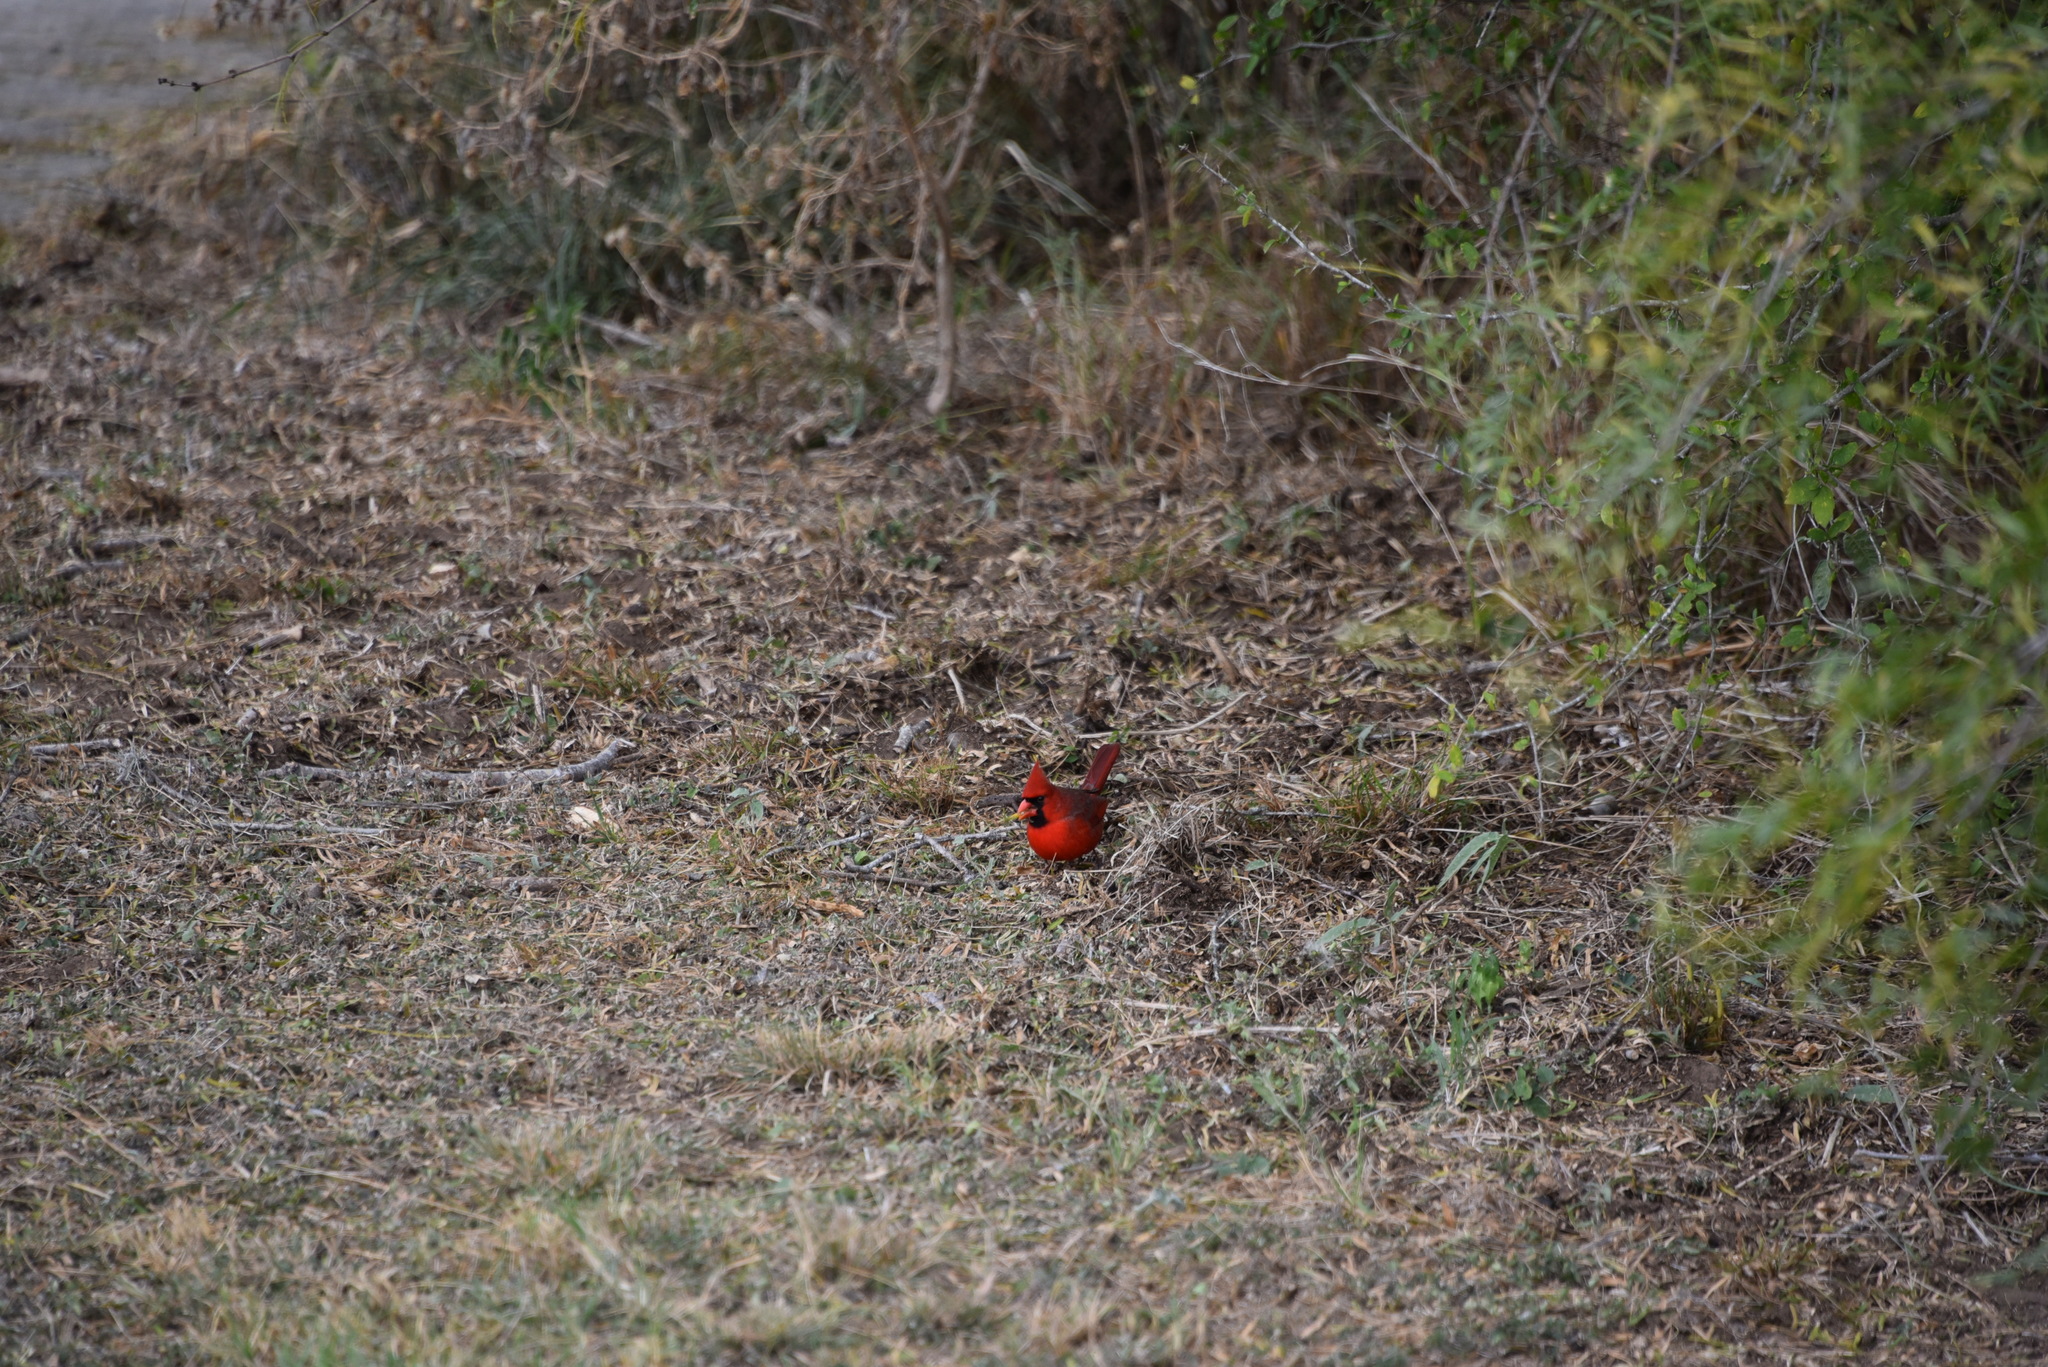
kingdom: Animalia
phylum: Chordata
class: Aves
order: Passeriformes
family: Cardinalidae
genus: Cardinalis
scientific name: Cardinalis cardinalis
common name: Northern cardinal
